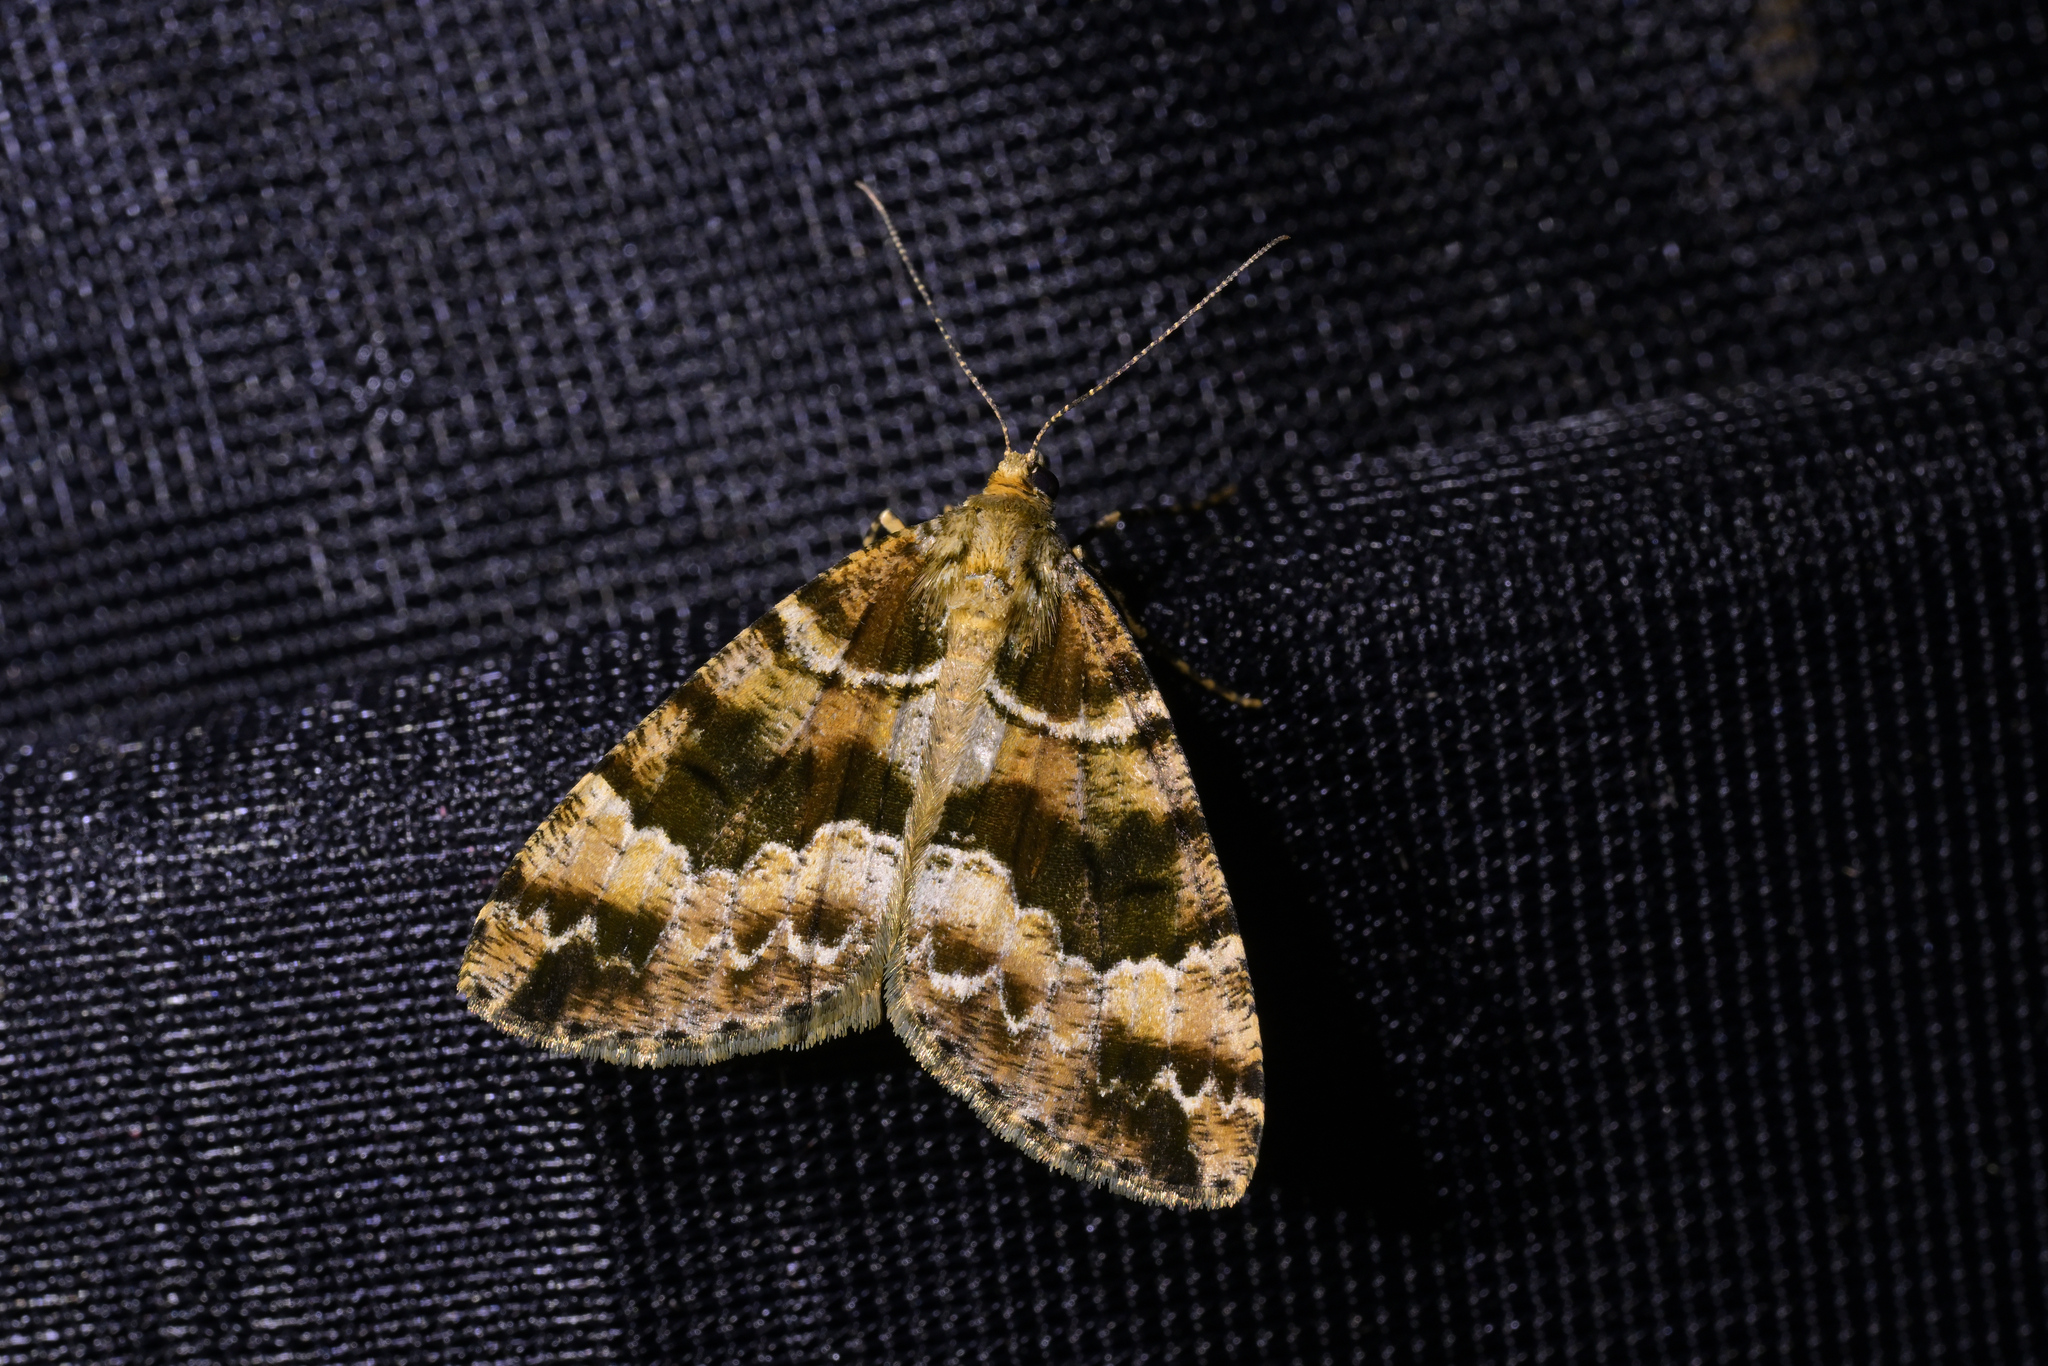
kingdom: Animalia
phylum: Arthropoda
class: Insecta
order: Lepidoptera
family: Geometridae
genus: Pseudocoremia
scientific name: Pseudocoremia productata
